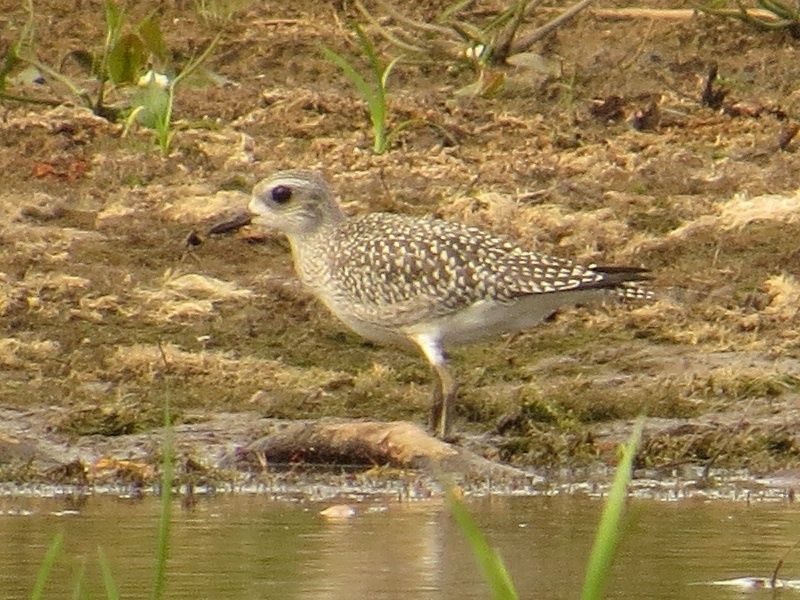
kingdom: Animalia
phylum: Chordata
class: Aves
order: Charadriiformes
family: Charadriidae
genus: Pluvialis
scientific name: Pluvialis squatarola
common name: Grey plover
